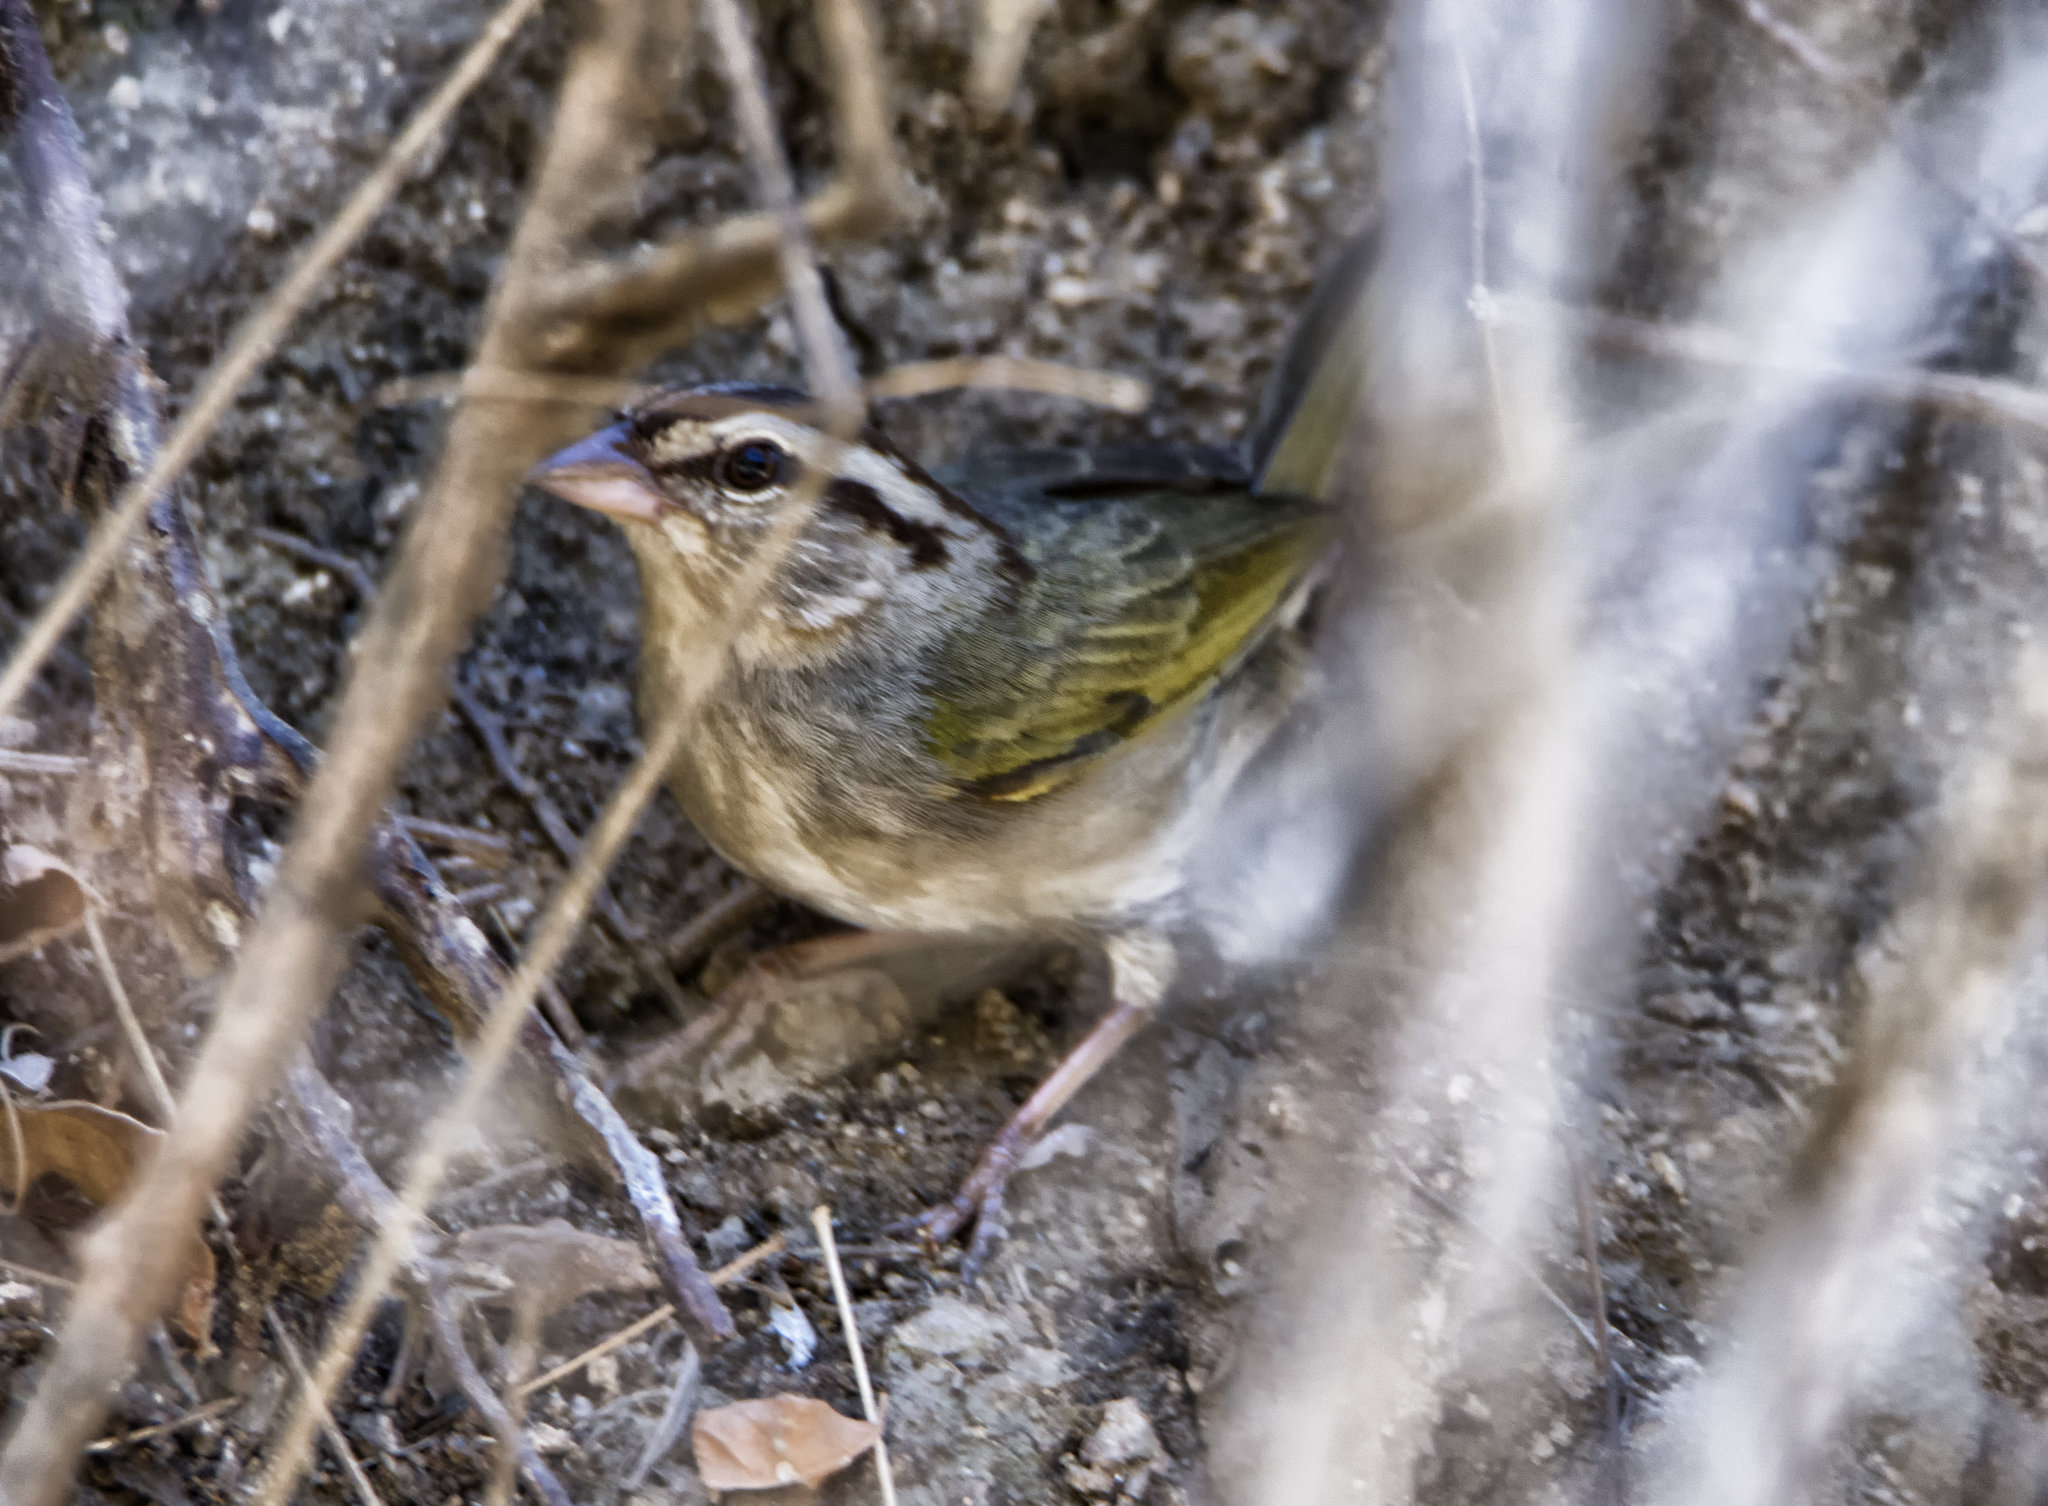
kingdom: Animalia
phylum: Chordata
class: Aves
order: Passeriformes
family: Passerellidae
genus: Arremonops
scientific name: Arremonops rufivirgatus
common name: Olive sparrow
